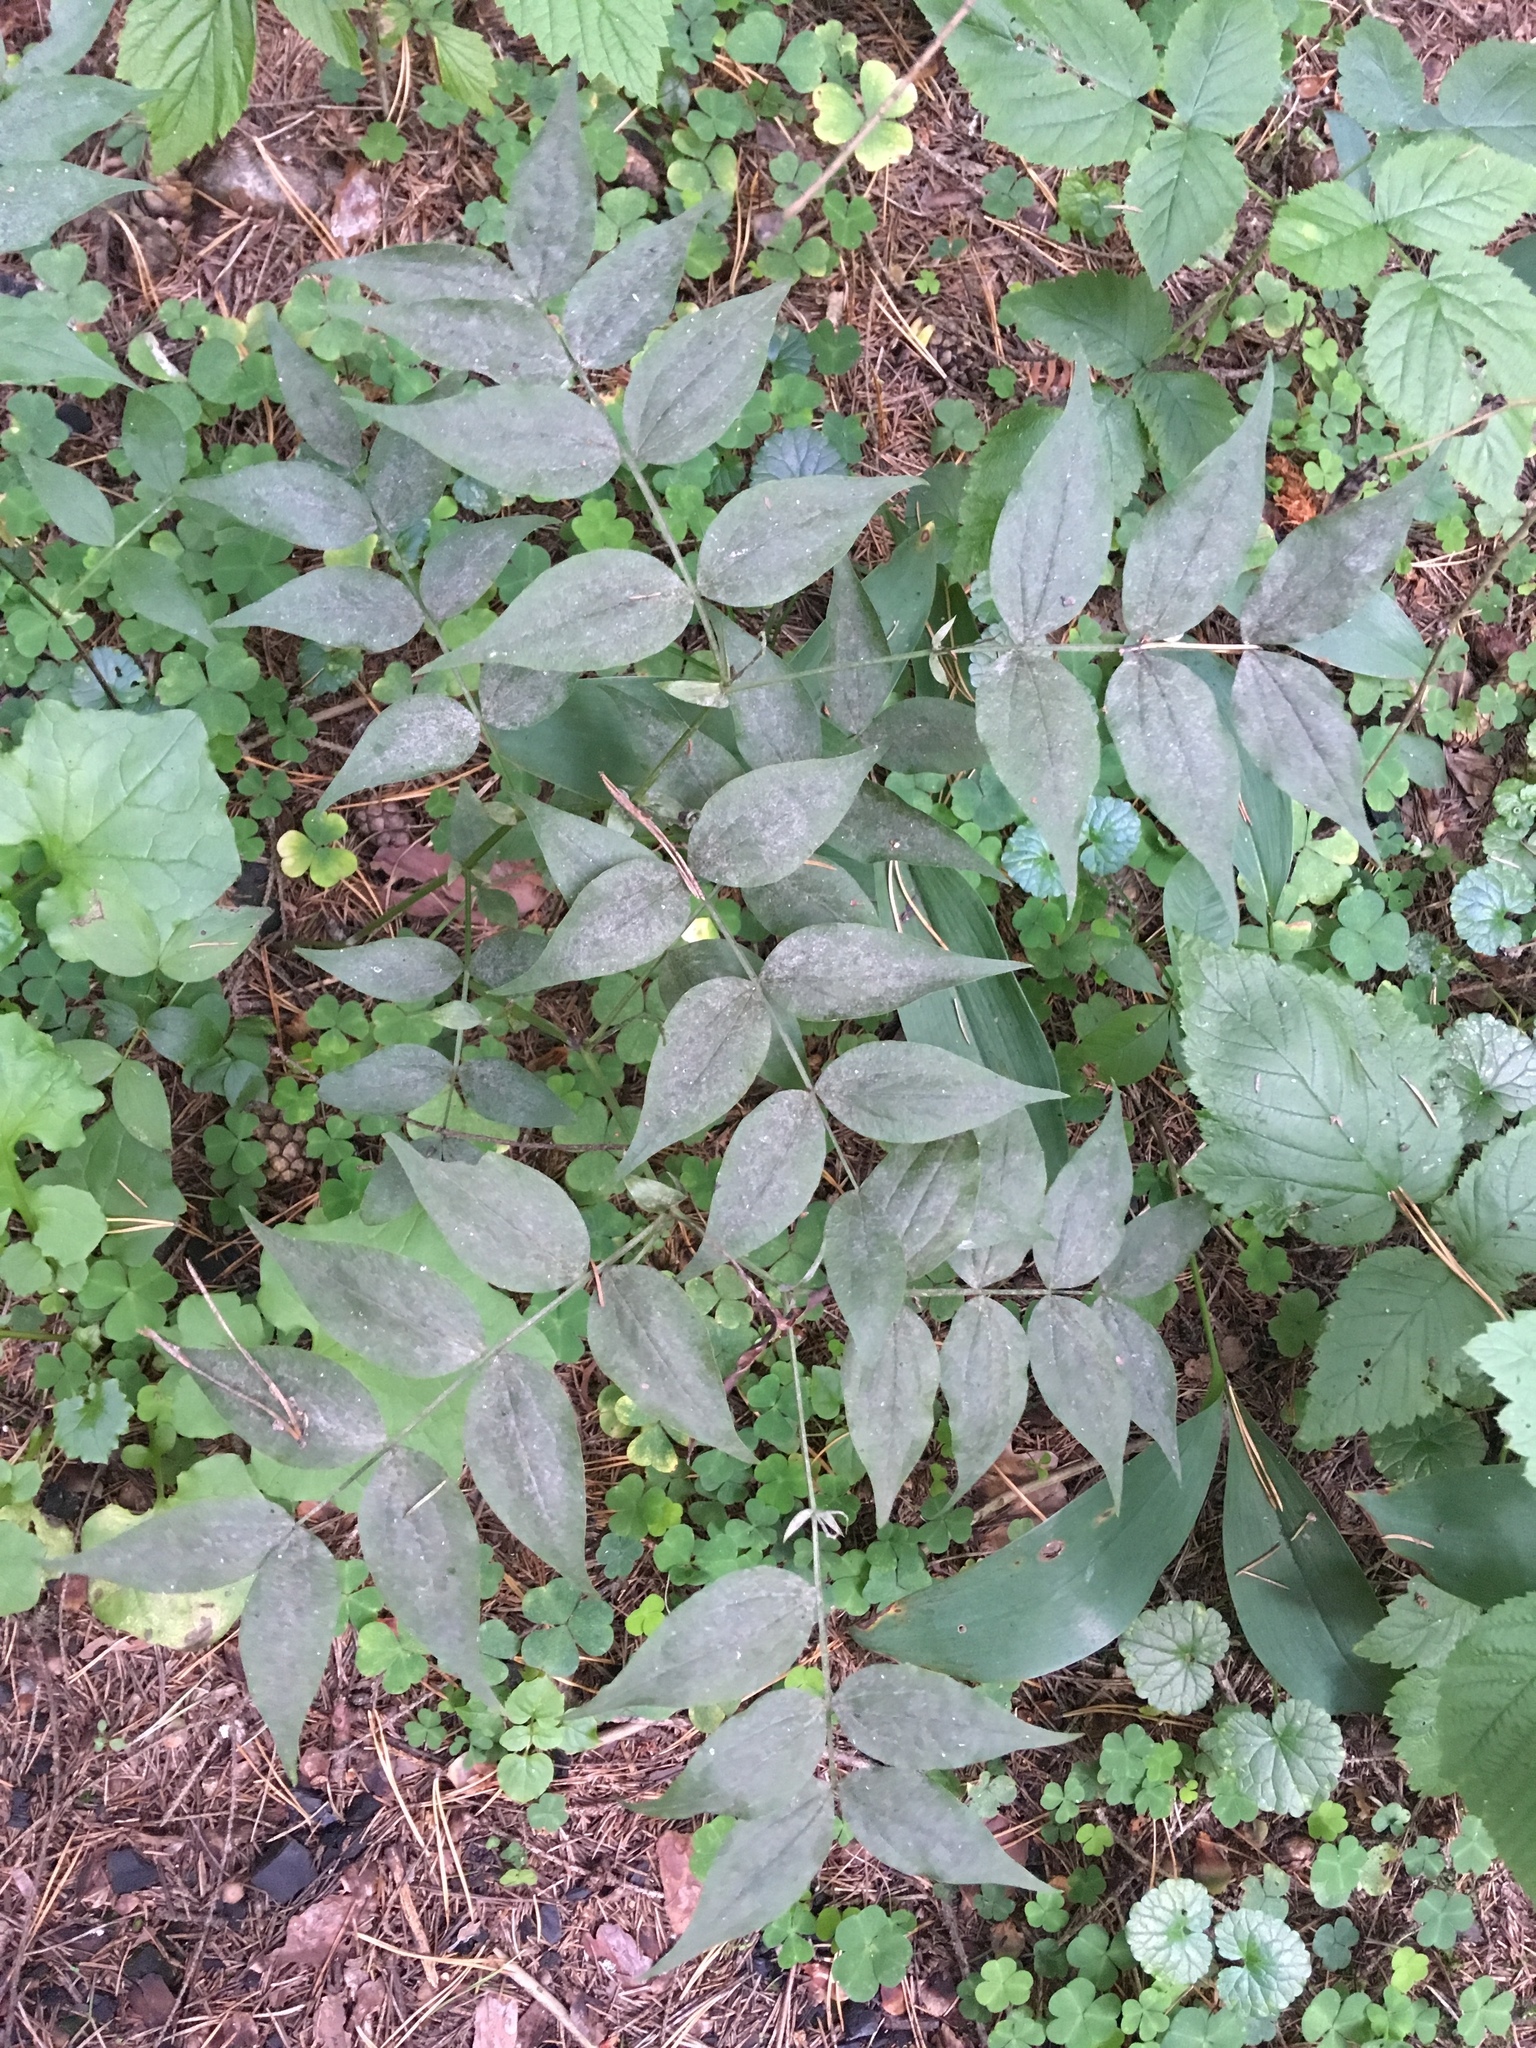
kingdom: Plantae
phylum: Tracheophyta
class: Magnoliopsida
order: Fabales
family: Fabaceae
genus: Lathyrus
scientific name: Lathyrus vernus
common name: Spring pea
